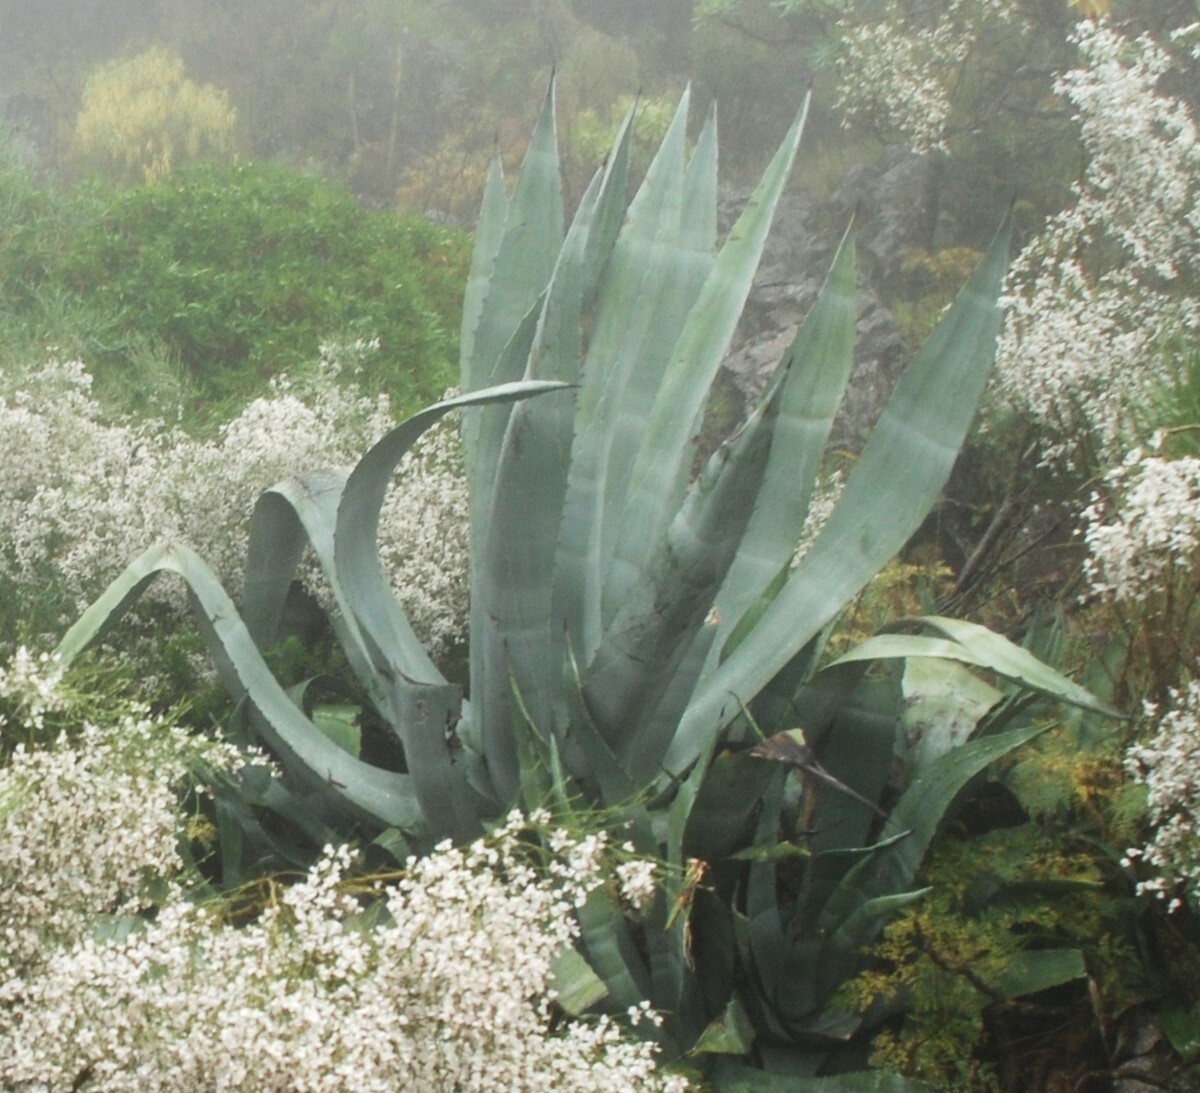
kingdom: Plantae
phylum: Tracheophyta
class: Liliopsida
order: Asparagales
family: Asparagaceae
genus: Agave
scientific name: Agave americana
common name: Centuryplant
